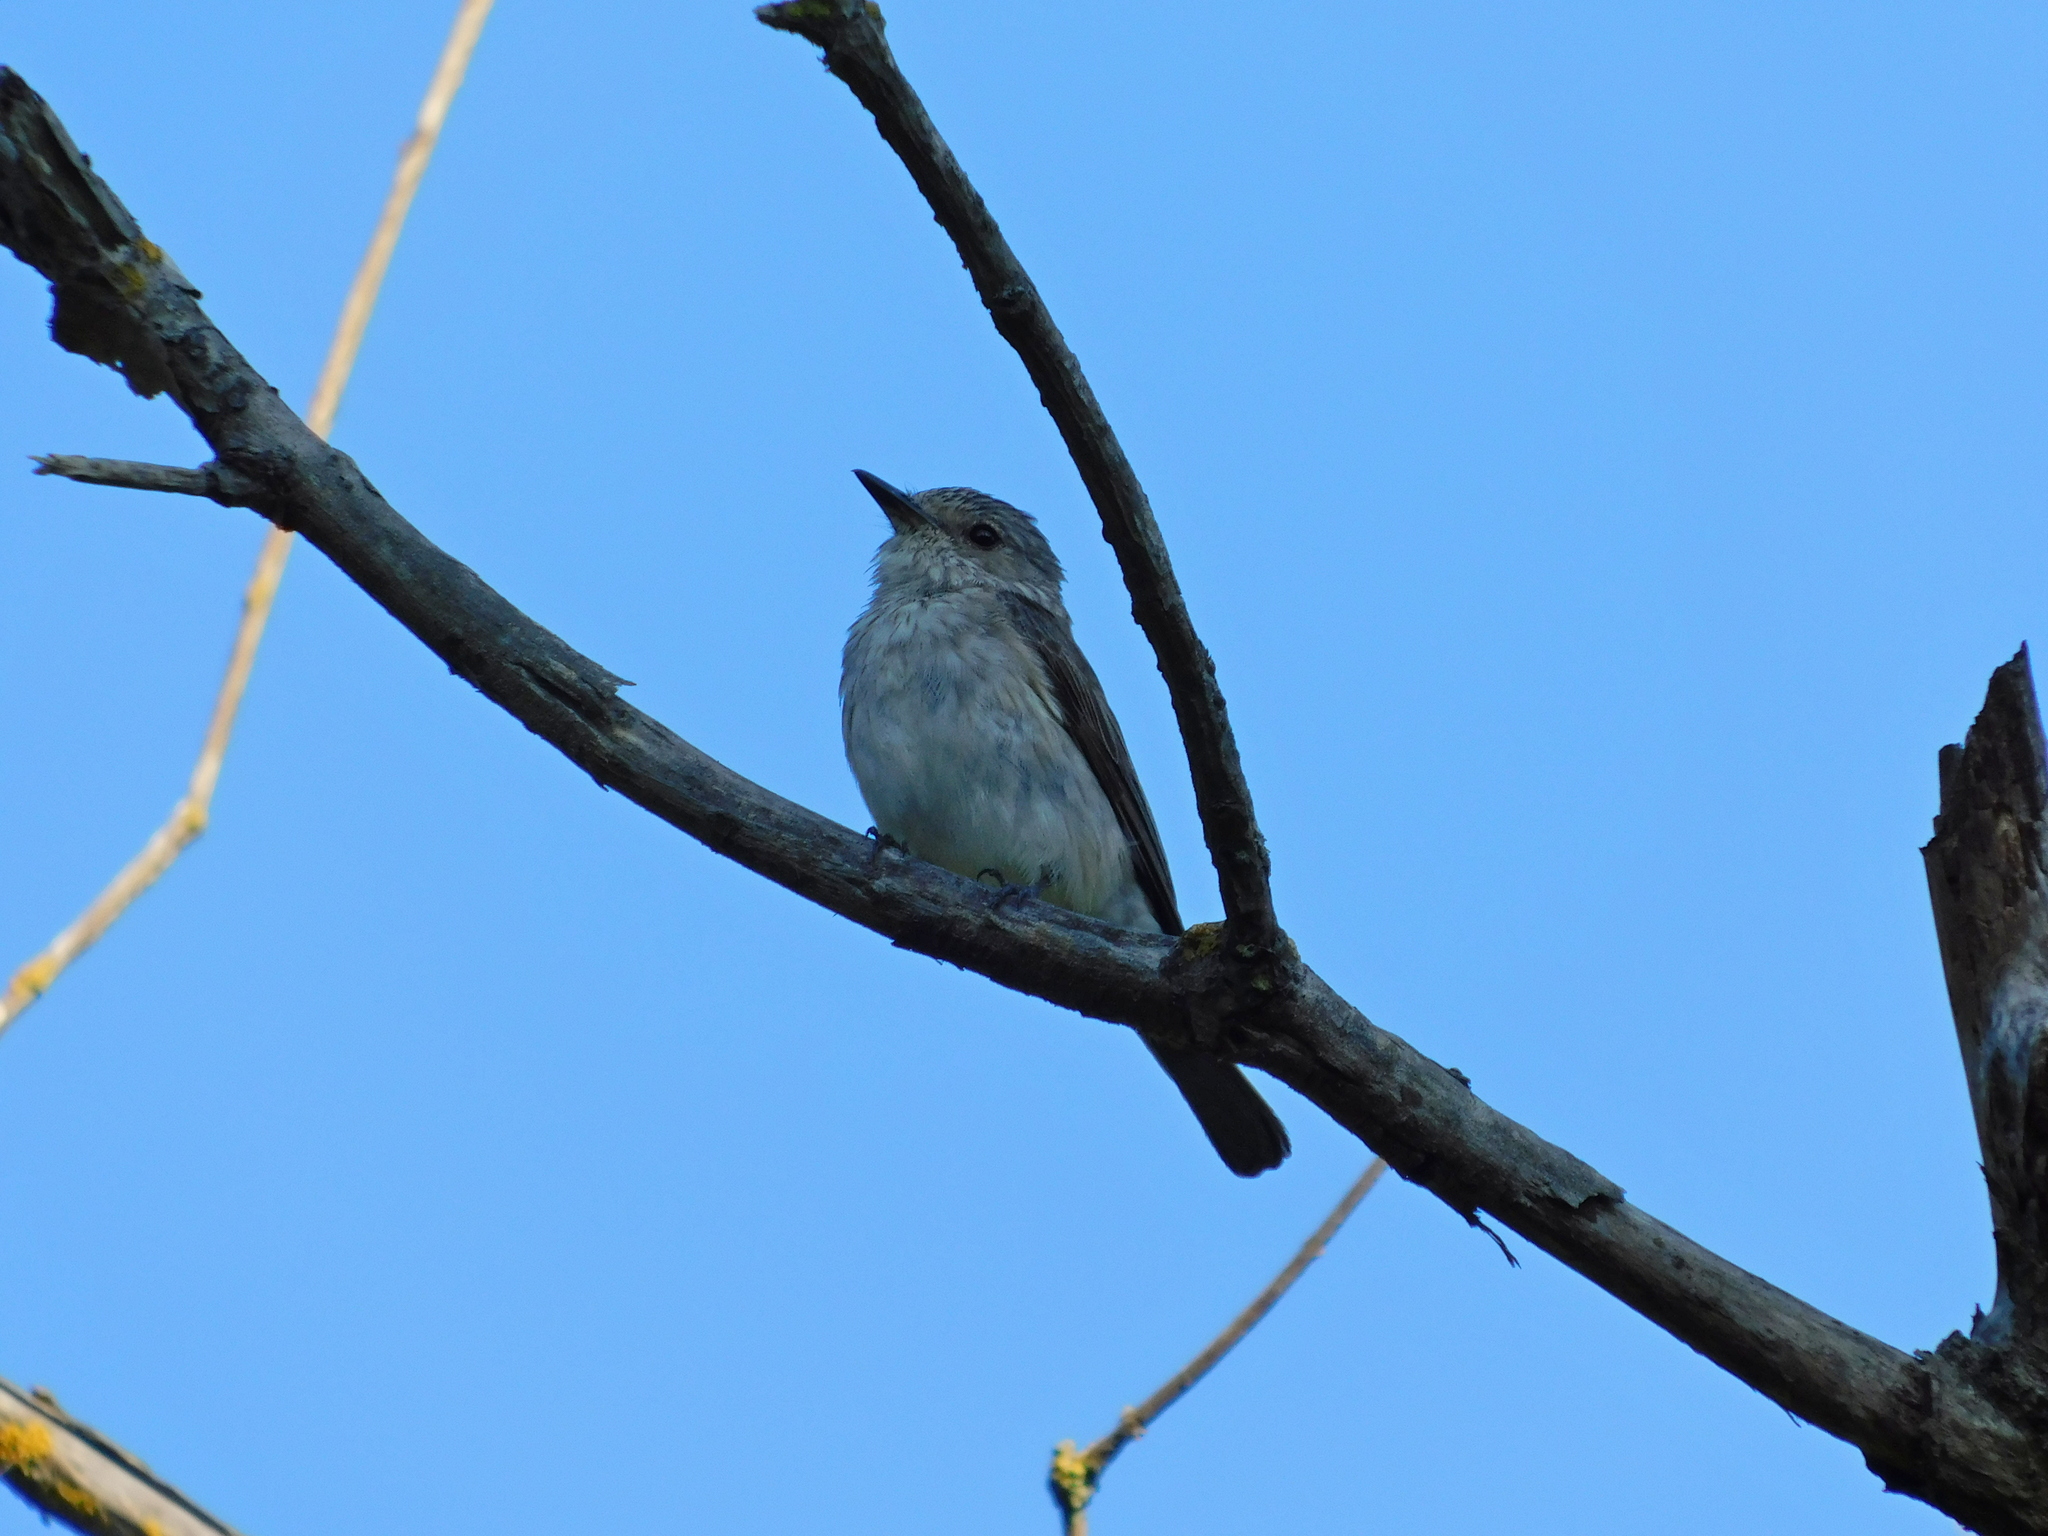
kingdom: Animalia
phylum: Chordata
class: Aves
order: Passeriformes
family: Muscicapidae
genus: Muscicapa
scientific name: Muscicapa striata
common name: Spotted flycatcher
